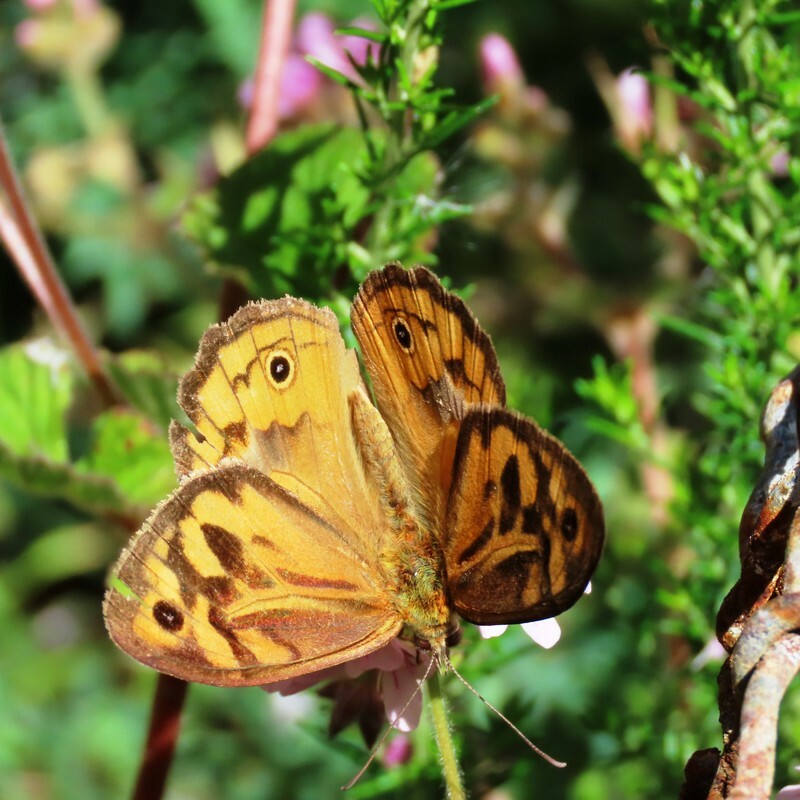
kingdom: Animalia
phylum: Arthropoda
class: Insecta
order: Lepidoptera
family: Nymphalidae
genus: Heteronympha
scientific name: Heteronympha merope
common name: Common brown
